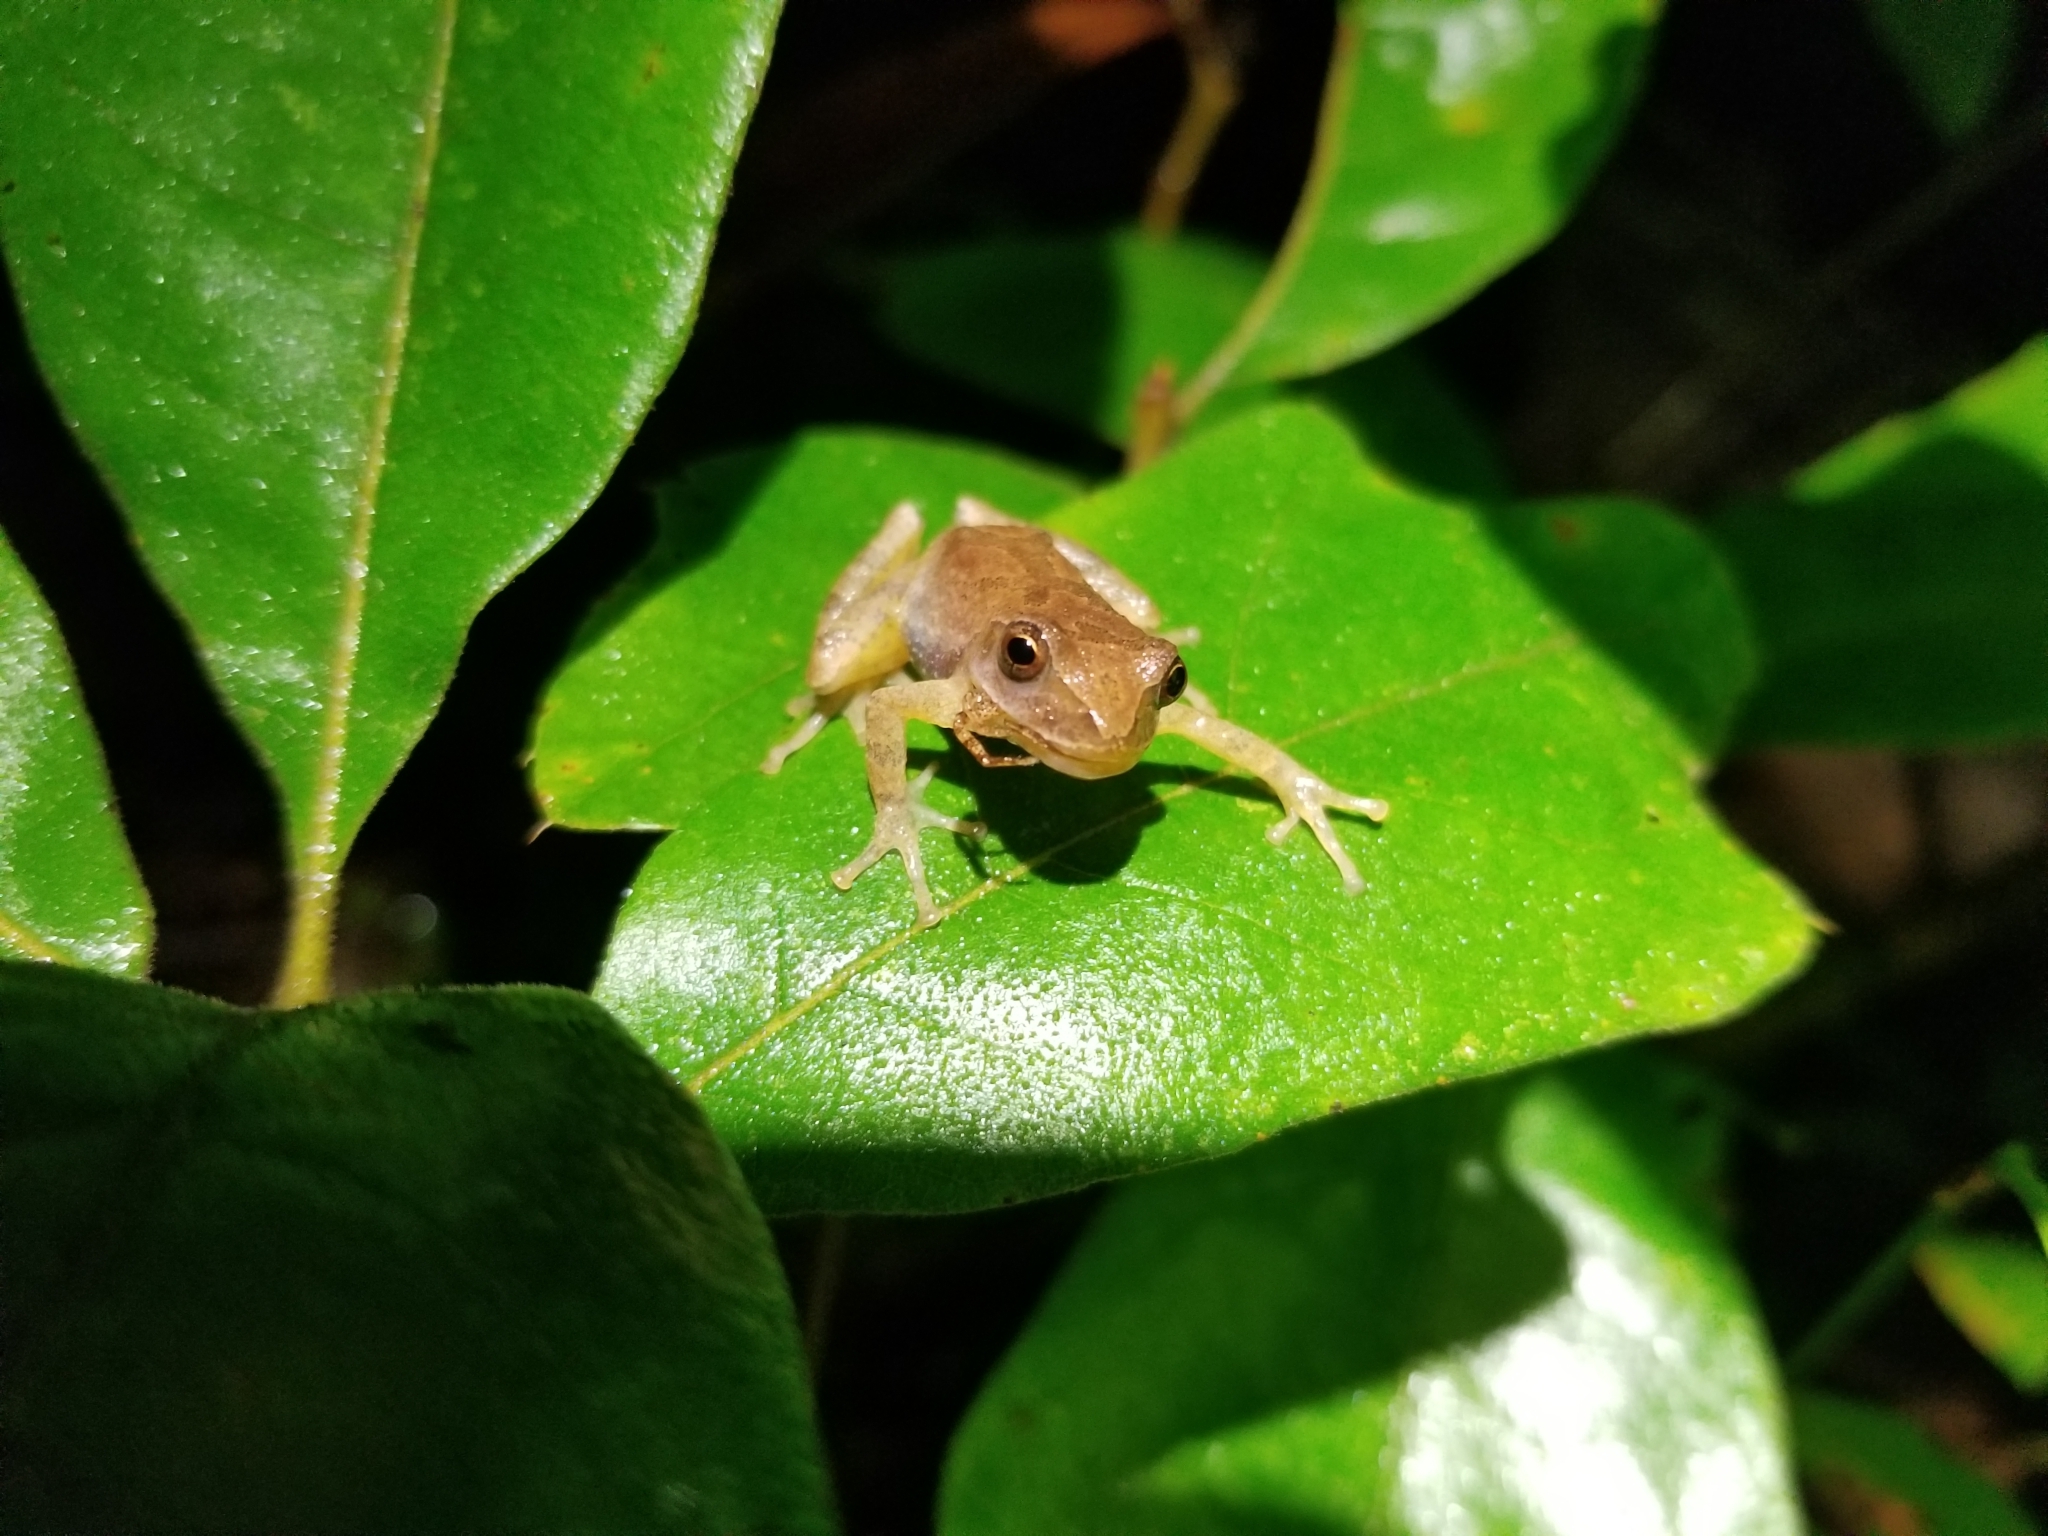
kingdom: Animalia
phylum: Chordata
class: Amphibia
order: Anura
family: Hylidae
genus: Pseudacris
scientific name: Pseudacris crucifer
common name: Spring peeper
